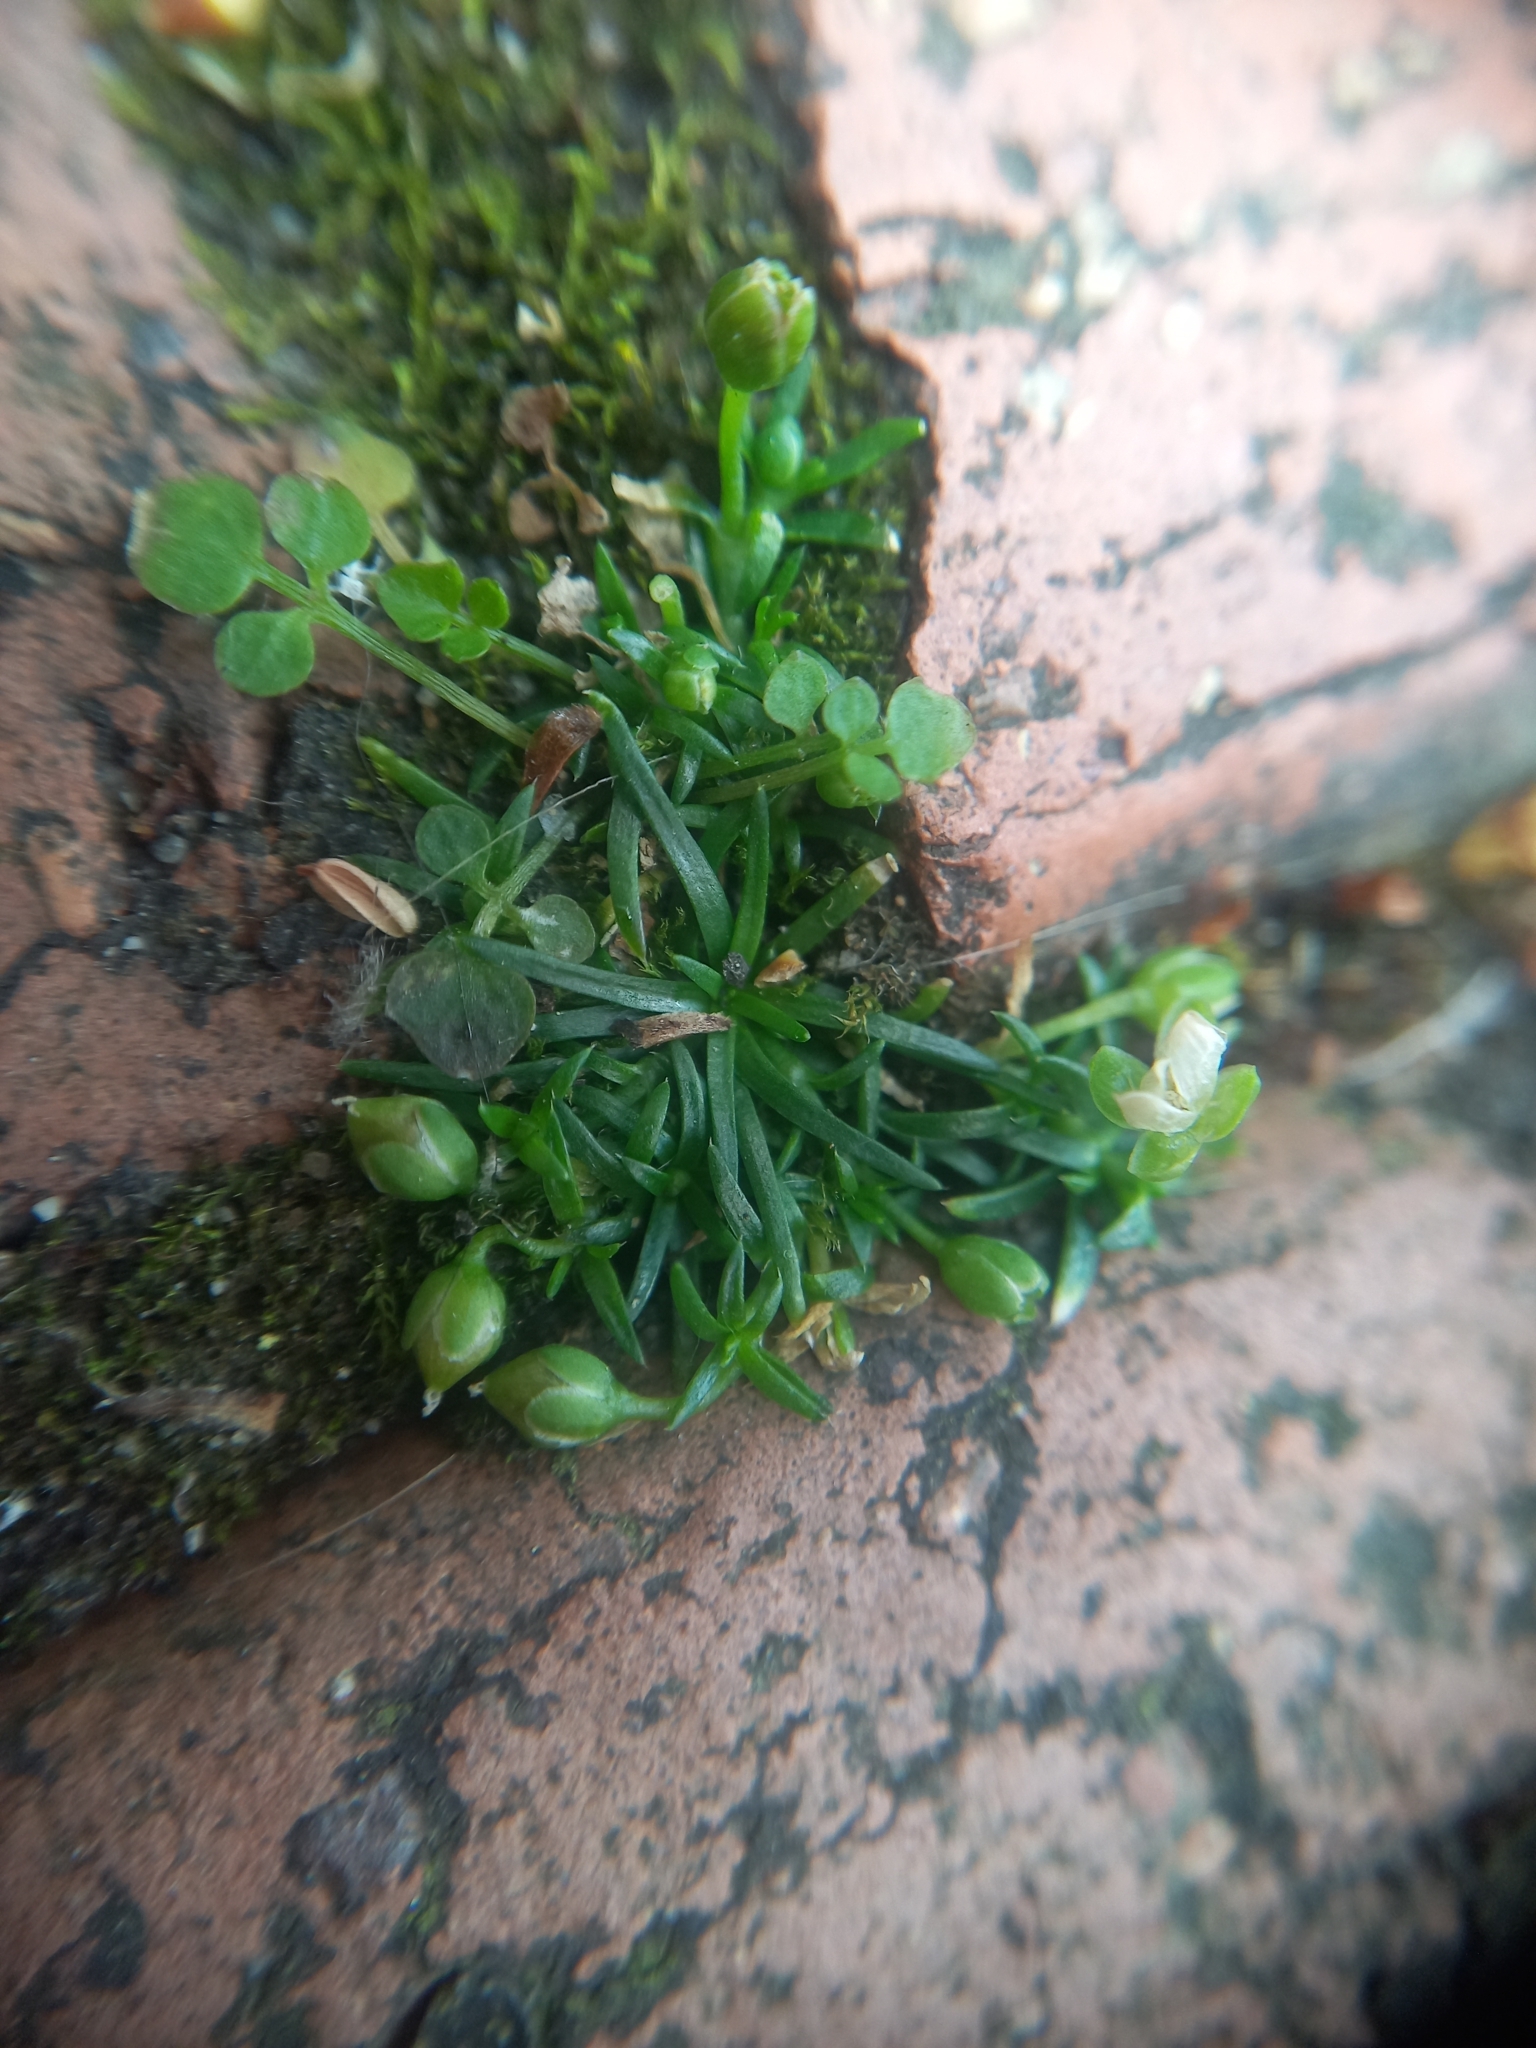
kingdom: Plantae
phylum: Tracheophyta
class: Magnoliopsida
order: Caryophyllales
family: Caryophyllaceae
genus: Sagina
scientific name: Sagina procumbens
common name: Procumbent pearlwort
